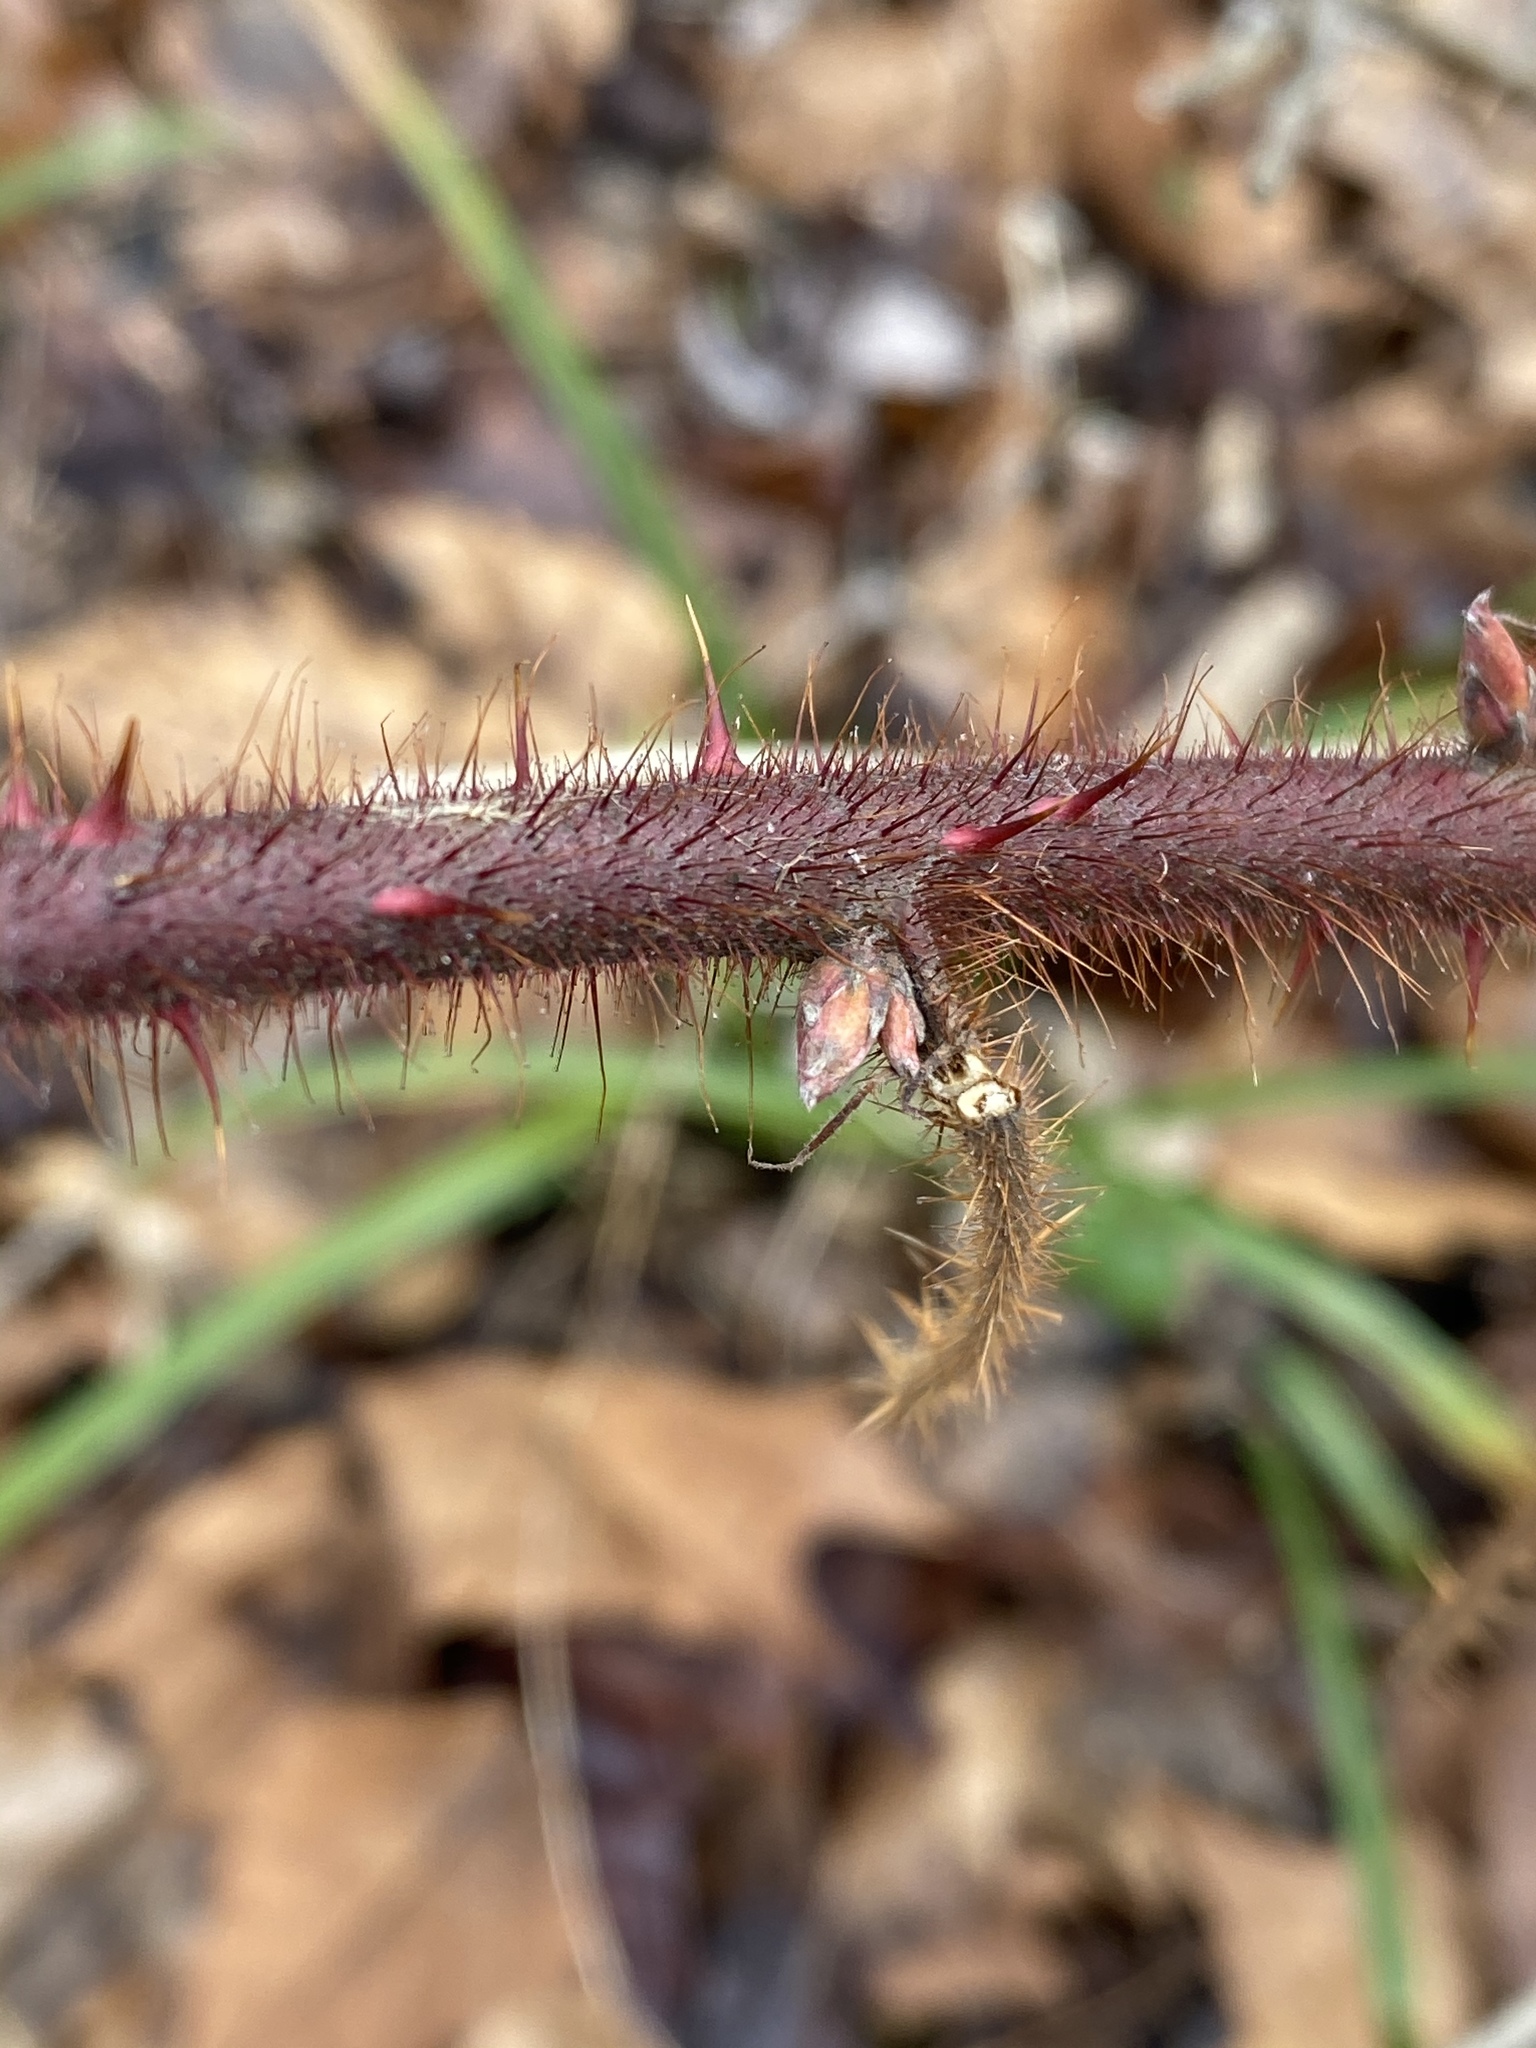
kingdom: Plantae
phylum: Tracheophyta
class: Magnoliopsida
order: Rosales
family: Rosaceae
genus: Rubus
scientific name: Rubus phoenicolasius
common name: Japanese wineberry
